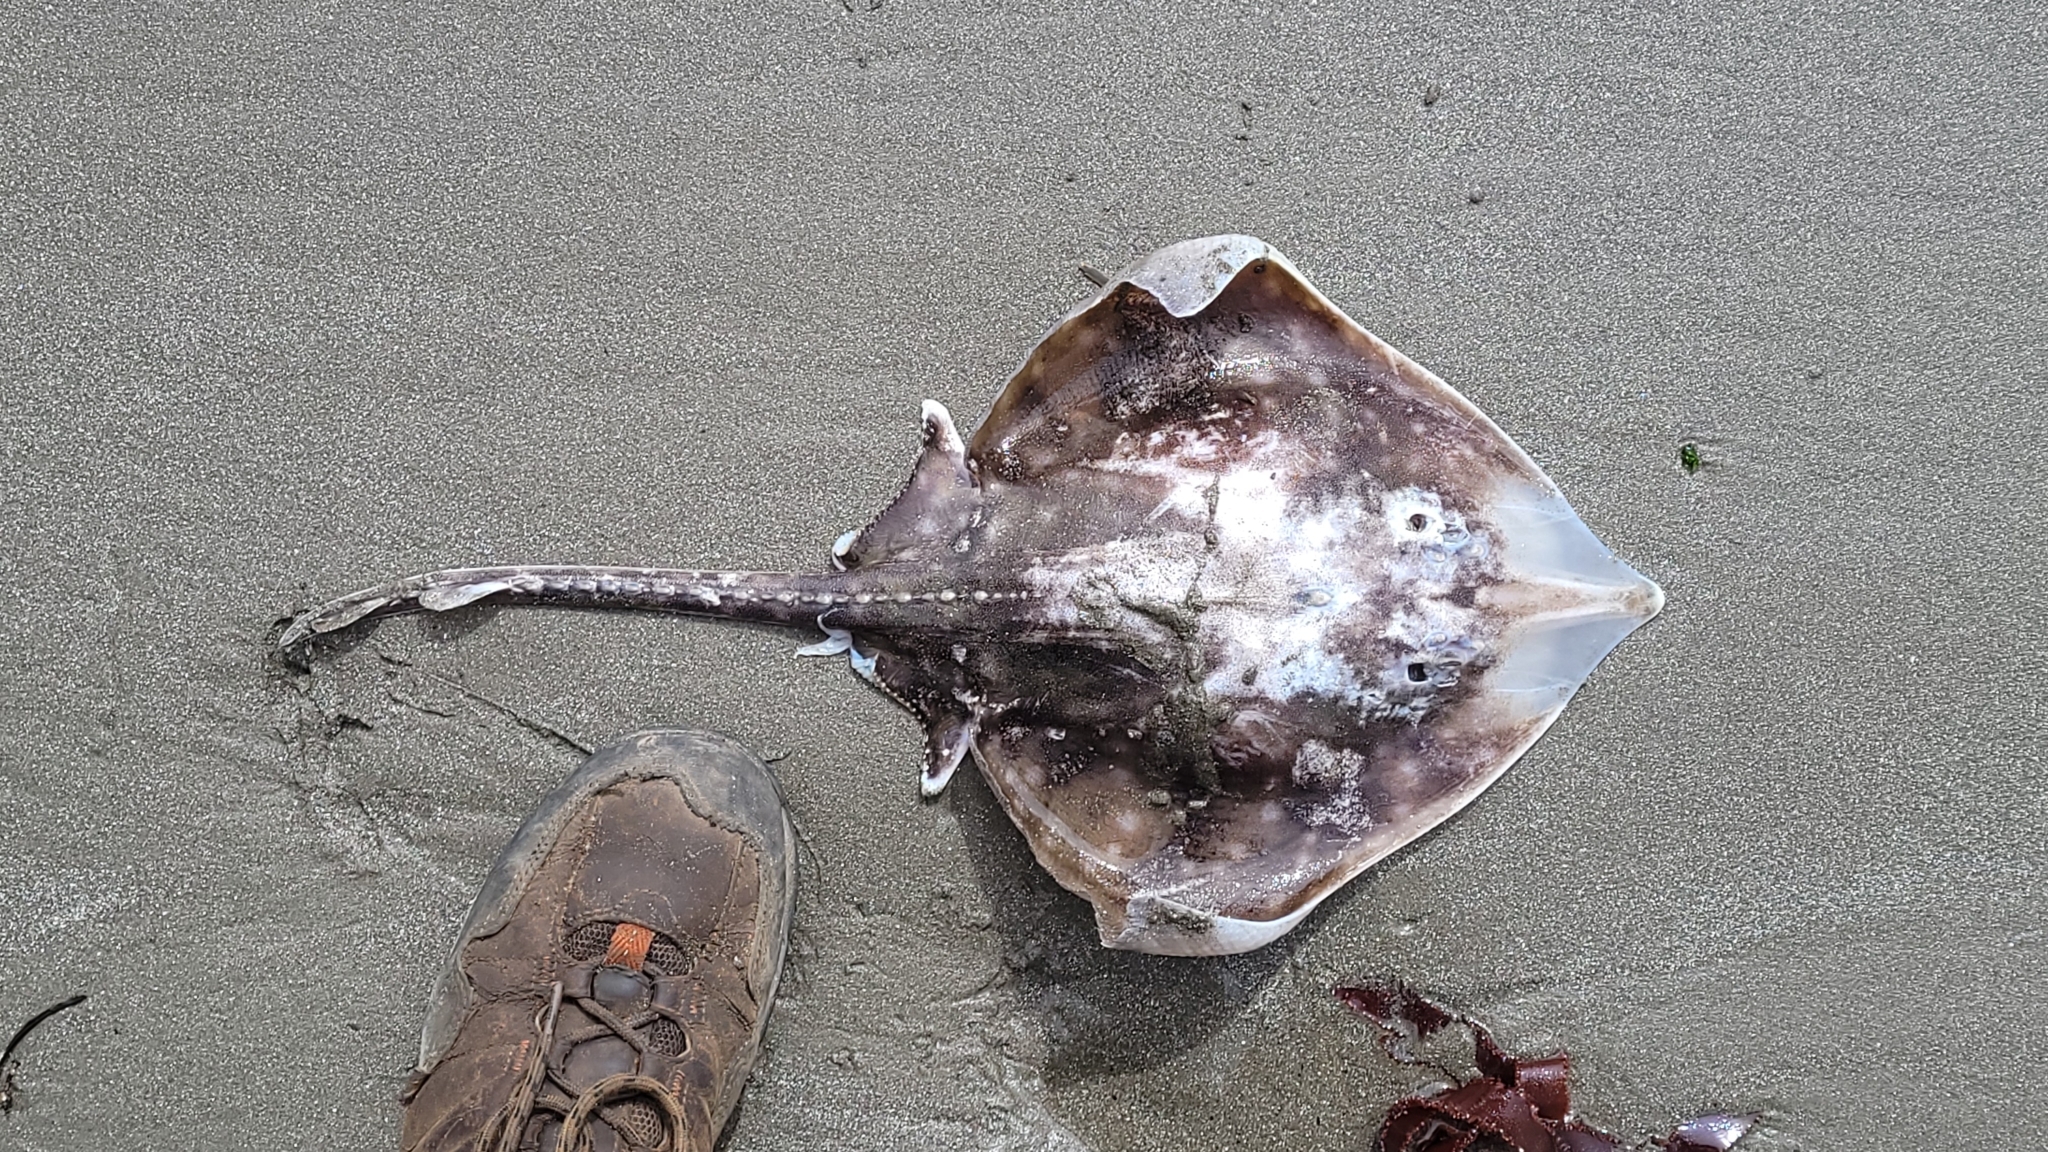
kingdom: Animalia
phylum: Chordata
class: Elasmobranchii
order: Rajiformes
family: Rajidae
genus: Beringraja
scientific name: Beringraja binoculata
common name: Big skate
